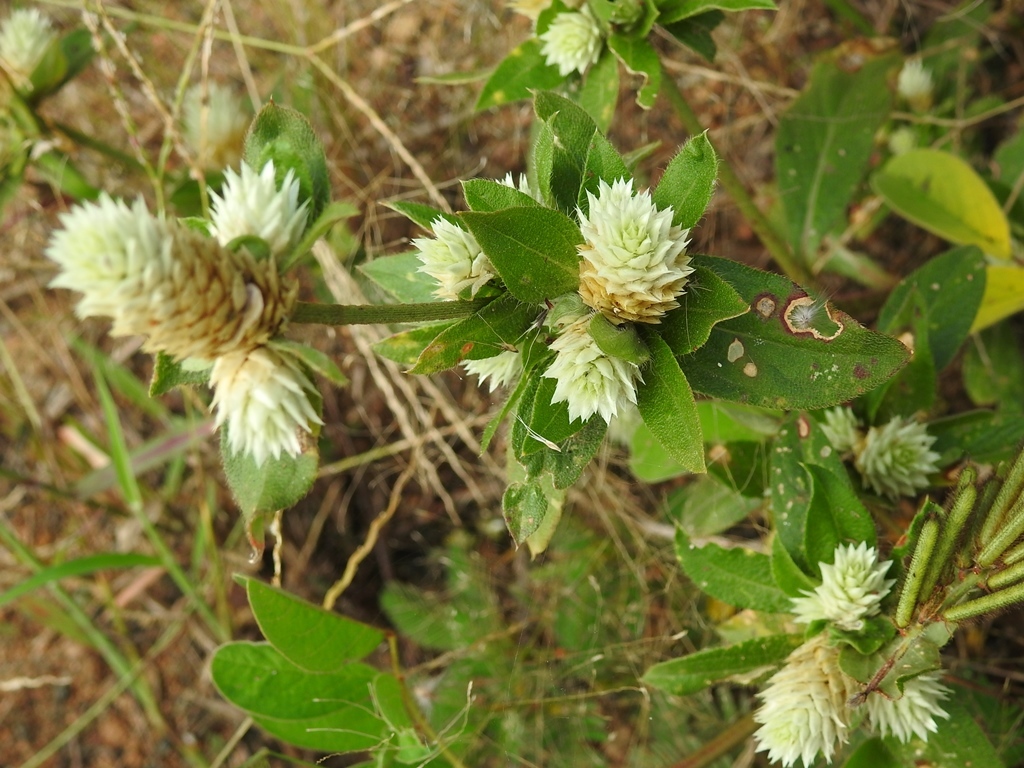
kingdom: Plantae
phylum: Tracheophyta
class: Magnoliopsida
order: Caryophyllales
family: Amaranthaceae
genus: Gomphrena
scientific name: Gomphrena serrata
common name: Arrasa con todo
